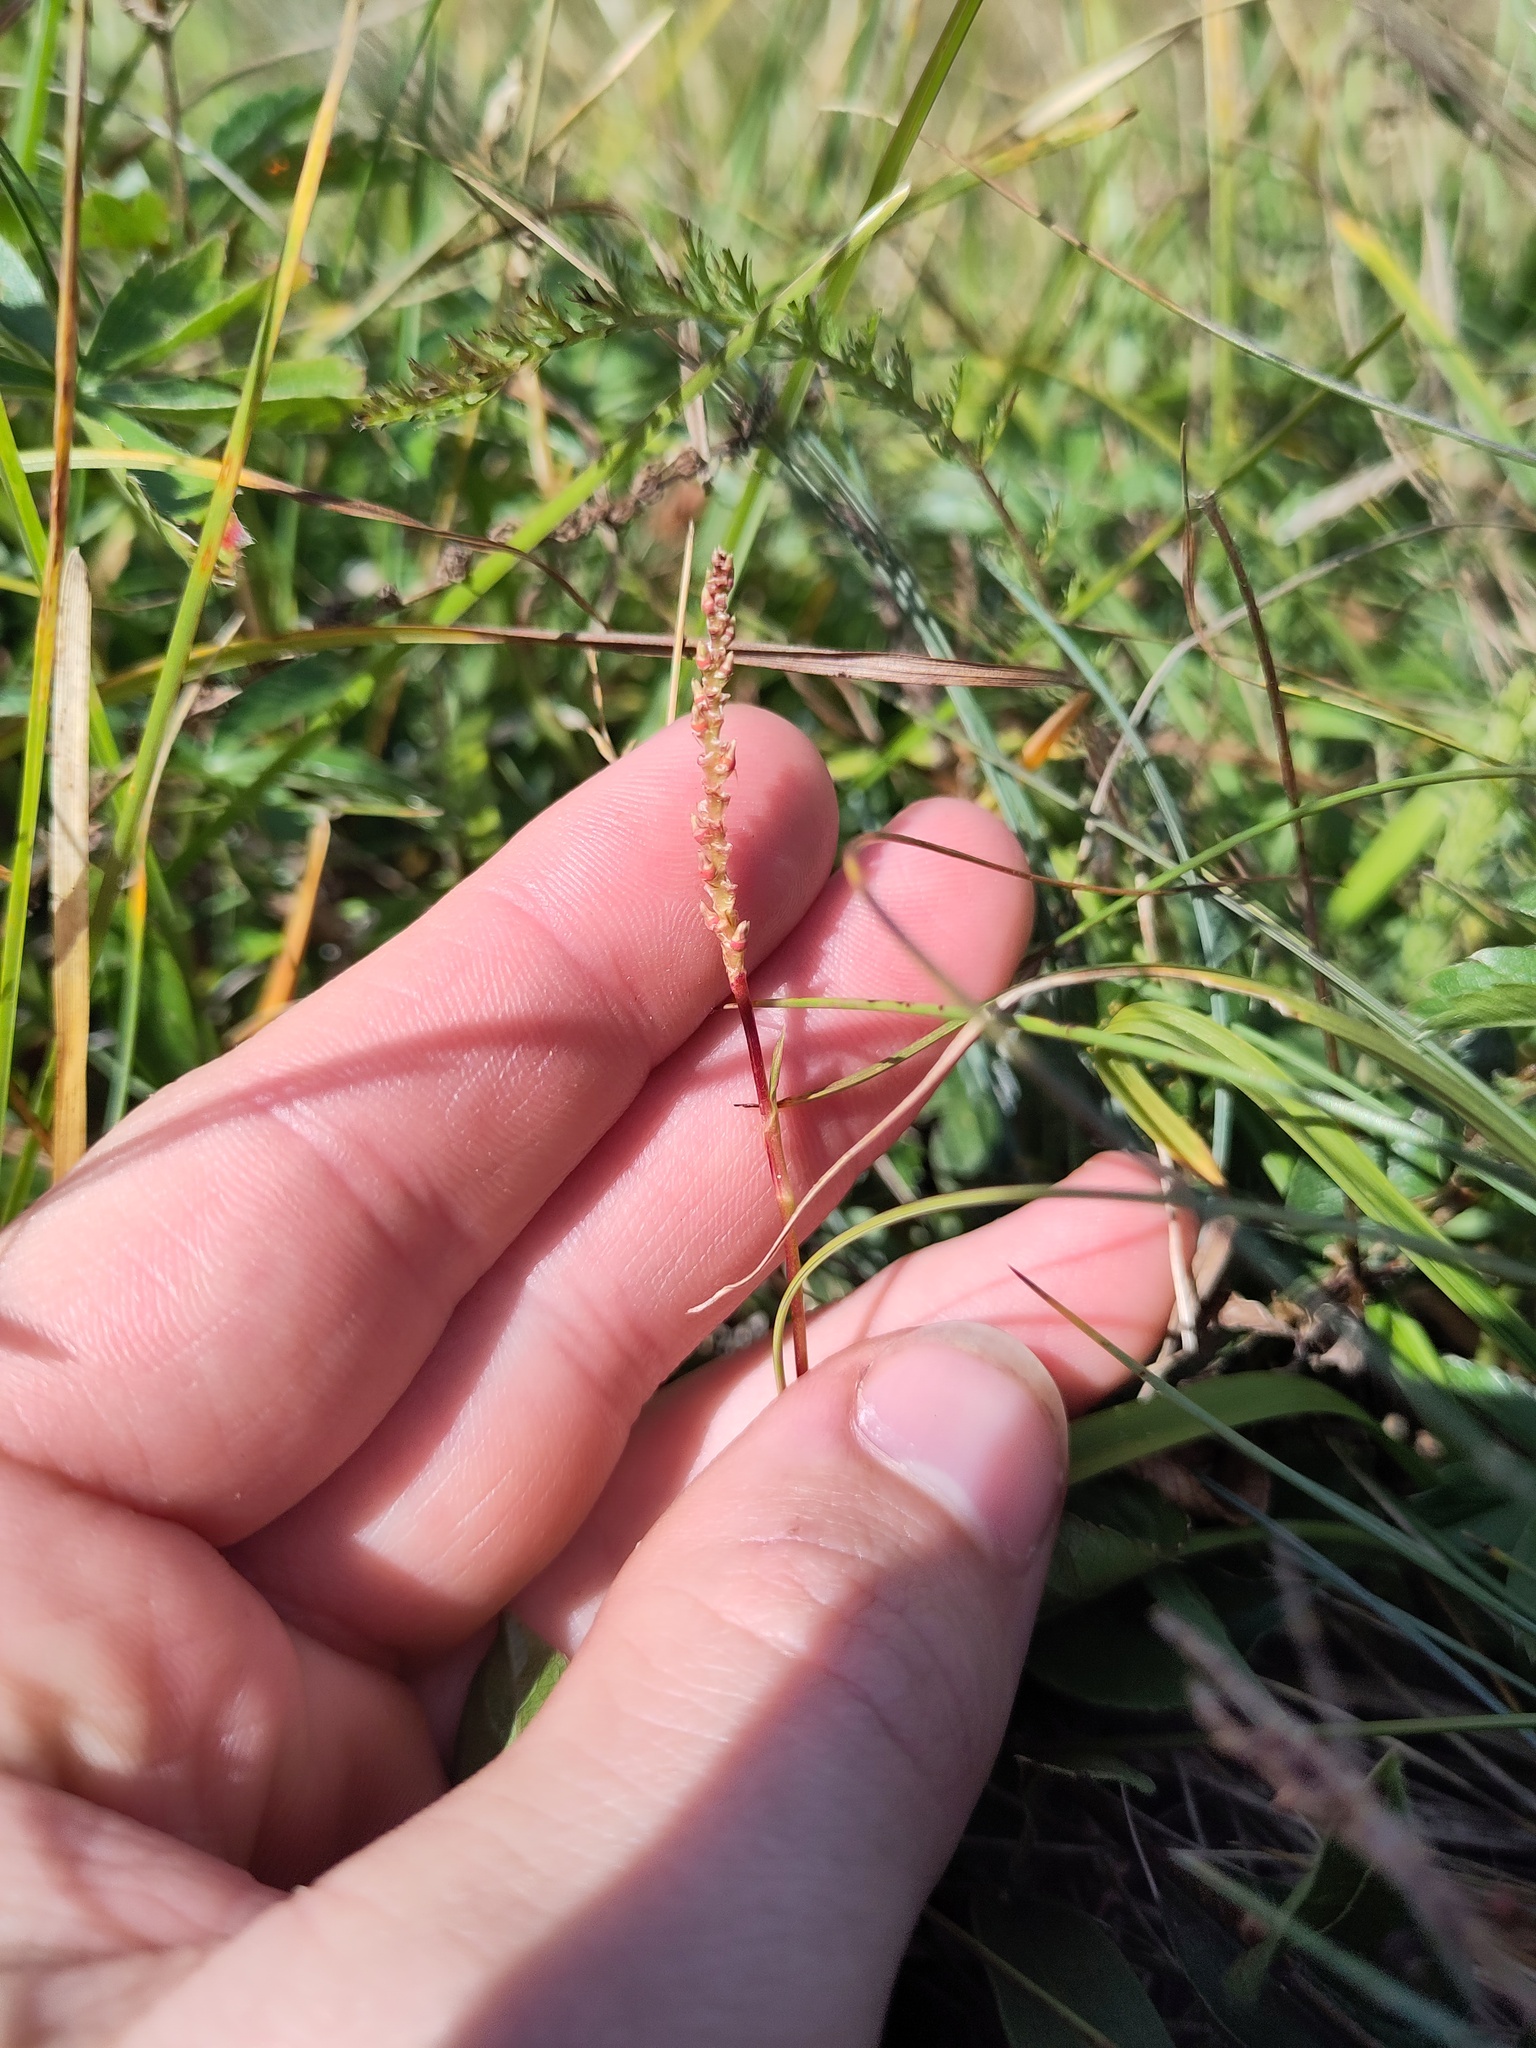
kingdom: Plantae
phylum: Tracheophyta
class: Magnoliopsida
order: Caryophyllales
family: Polygonaceae
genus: Bistorta
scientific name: Bistorta vivipara
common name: Alpine bistort
